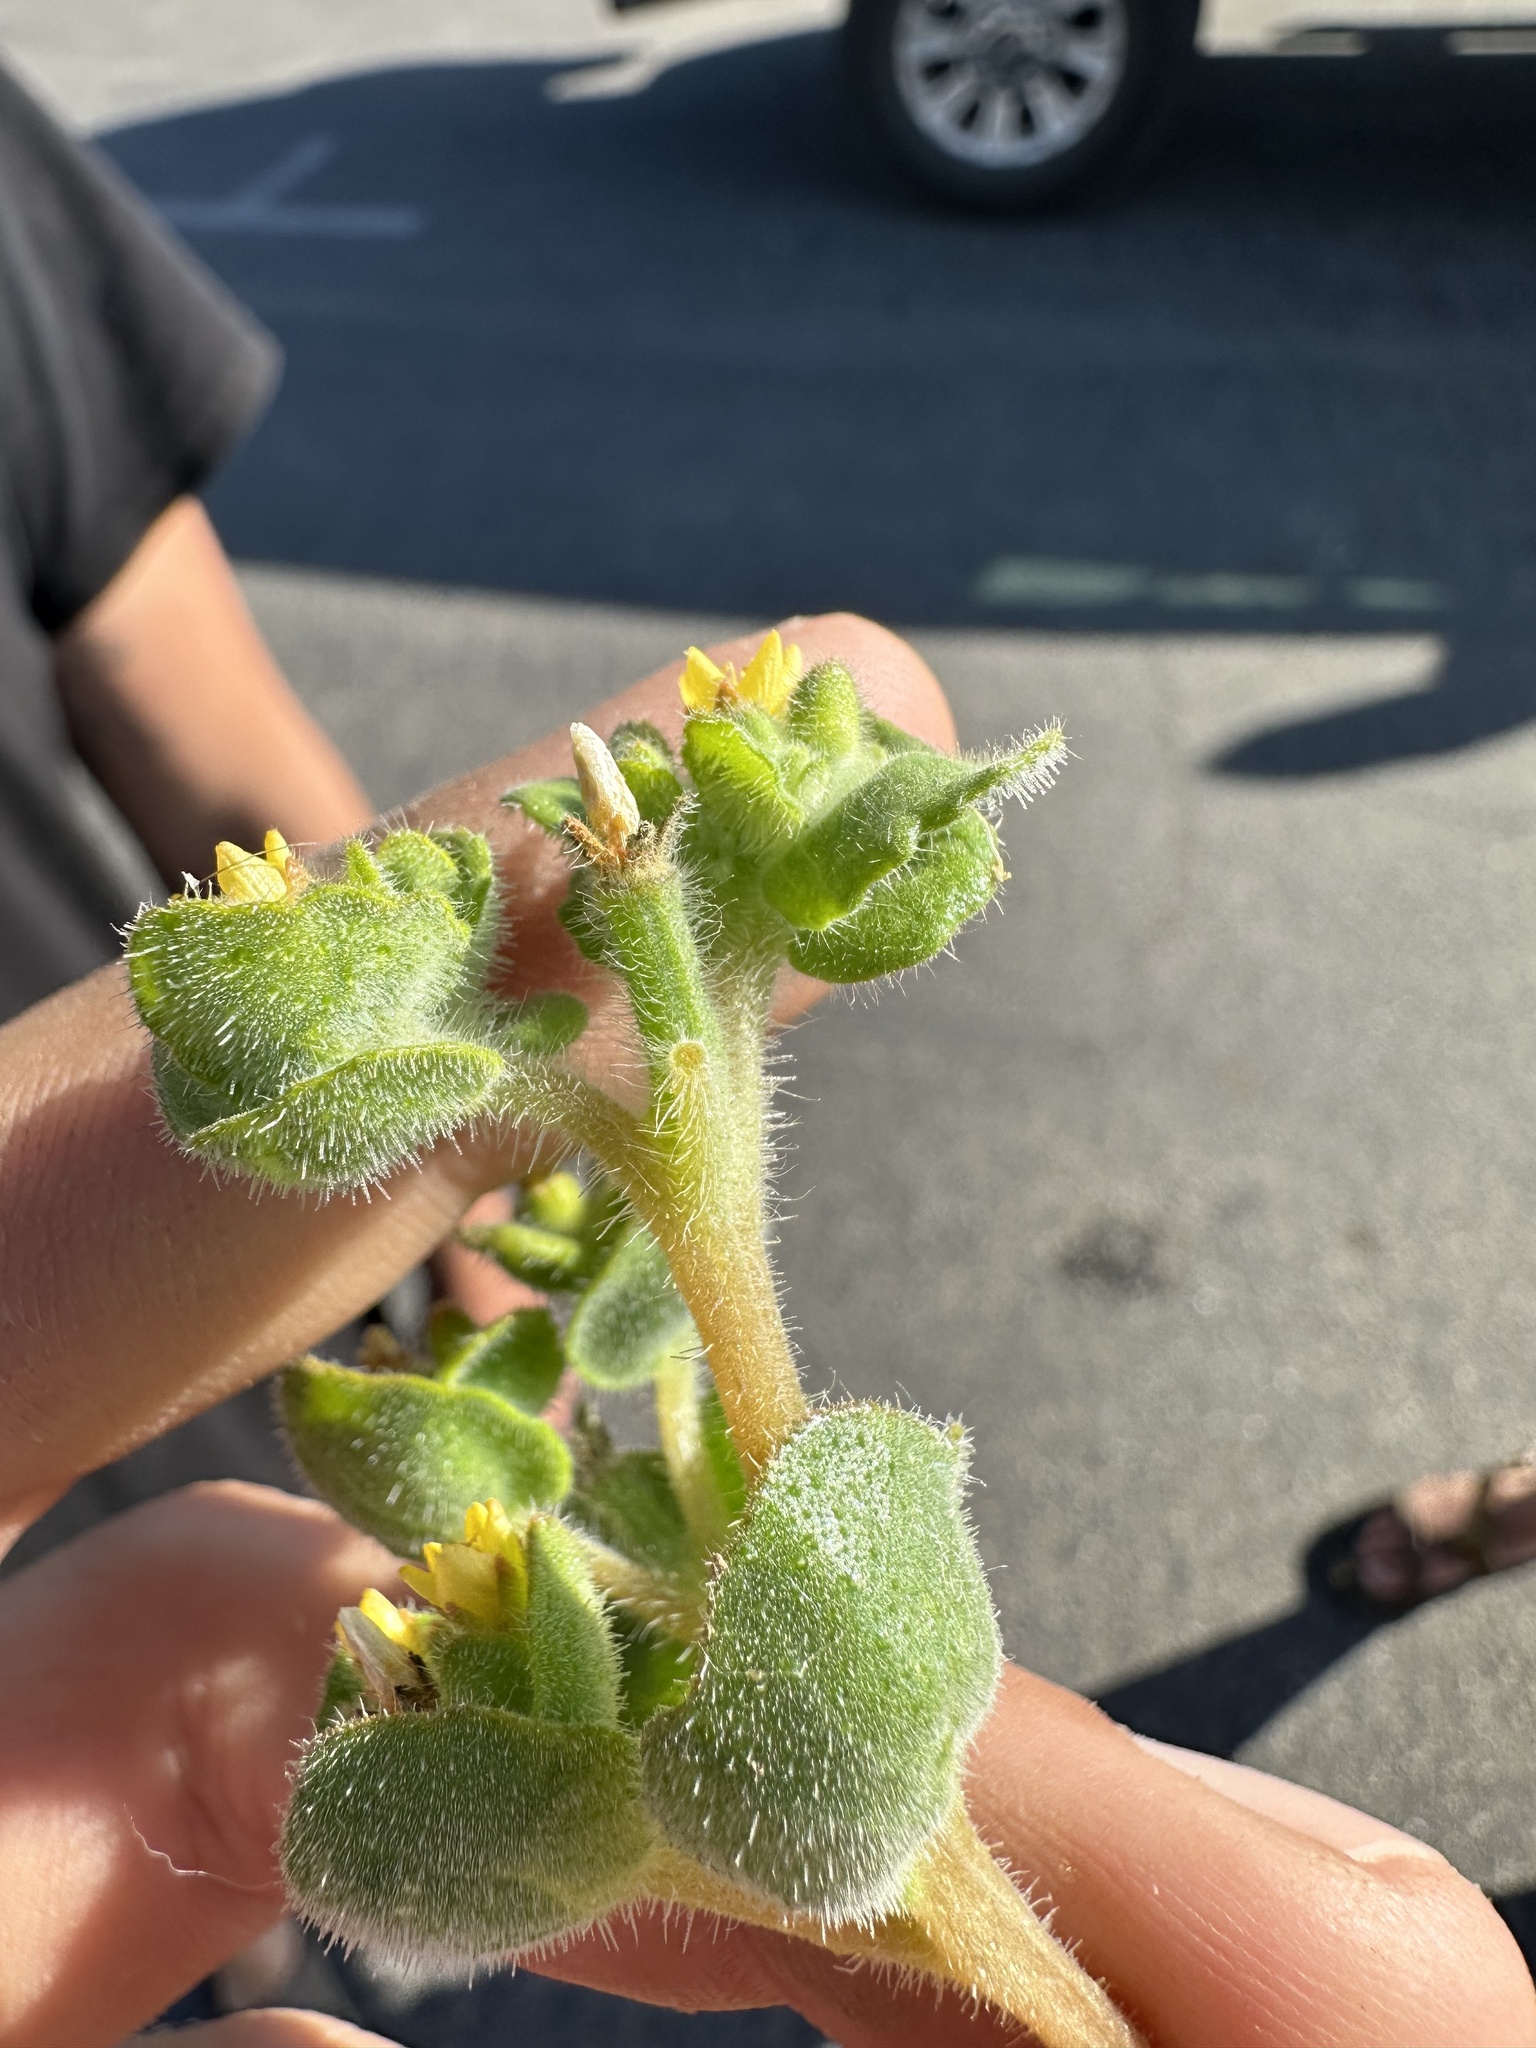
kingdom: Plantae
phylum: Tracheophyta
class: Magnoliopsida
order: Cornales
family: Loasaceae
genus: Mentzelia
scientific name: Mentzelia micrantha
